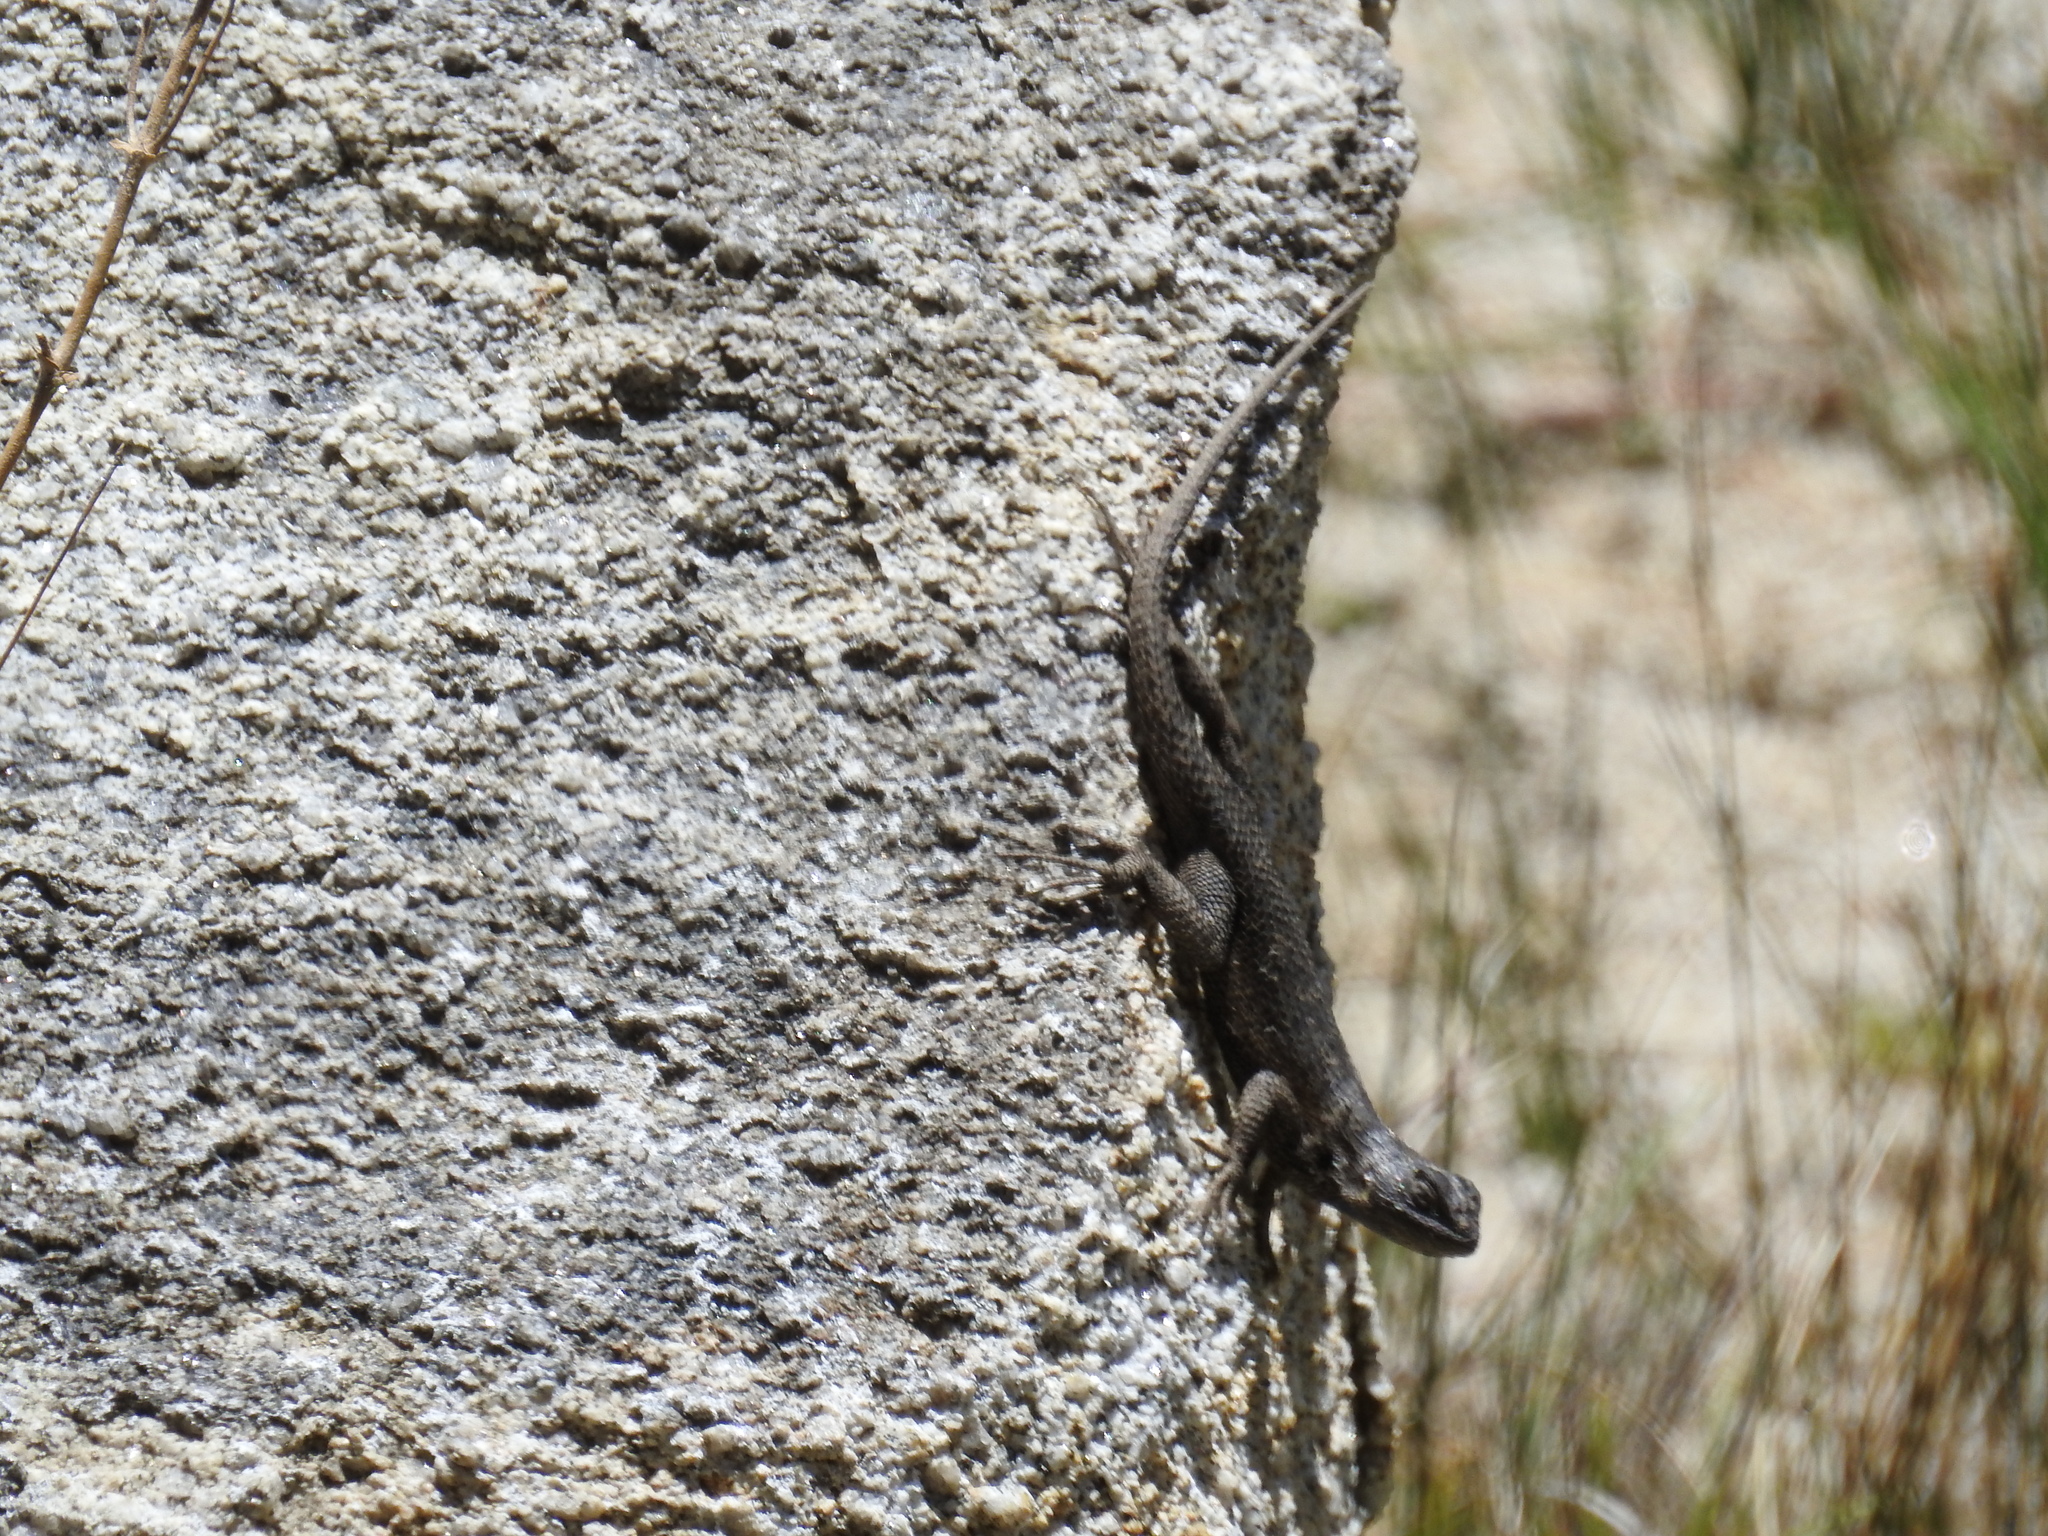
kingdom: Animalia
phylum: Chordata
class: Squamata
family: Phrynosomatidae
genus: Sceloporus
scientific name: Sceloporus occidentalis
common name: Western fence lizard
